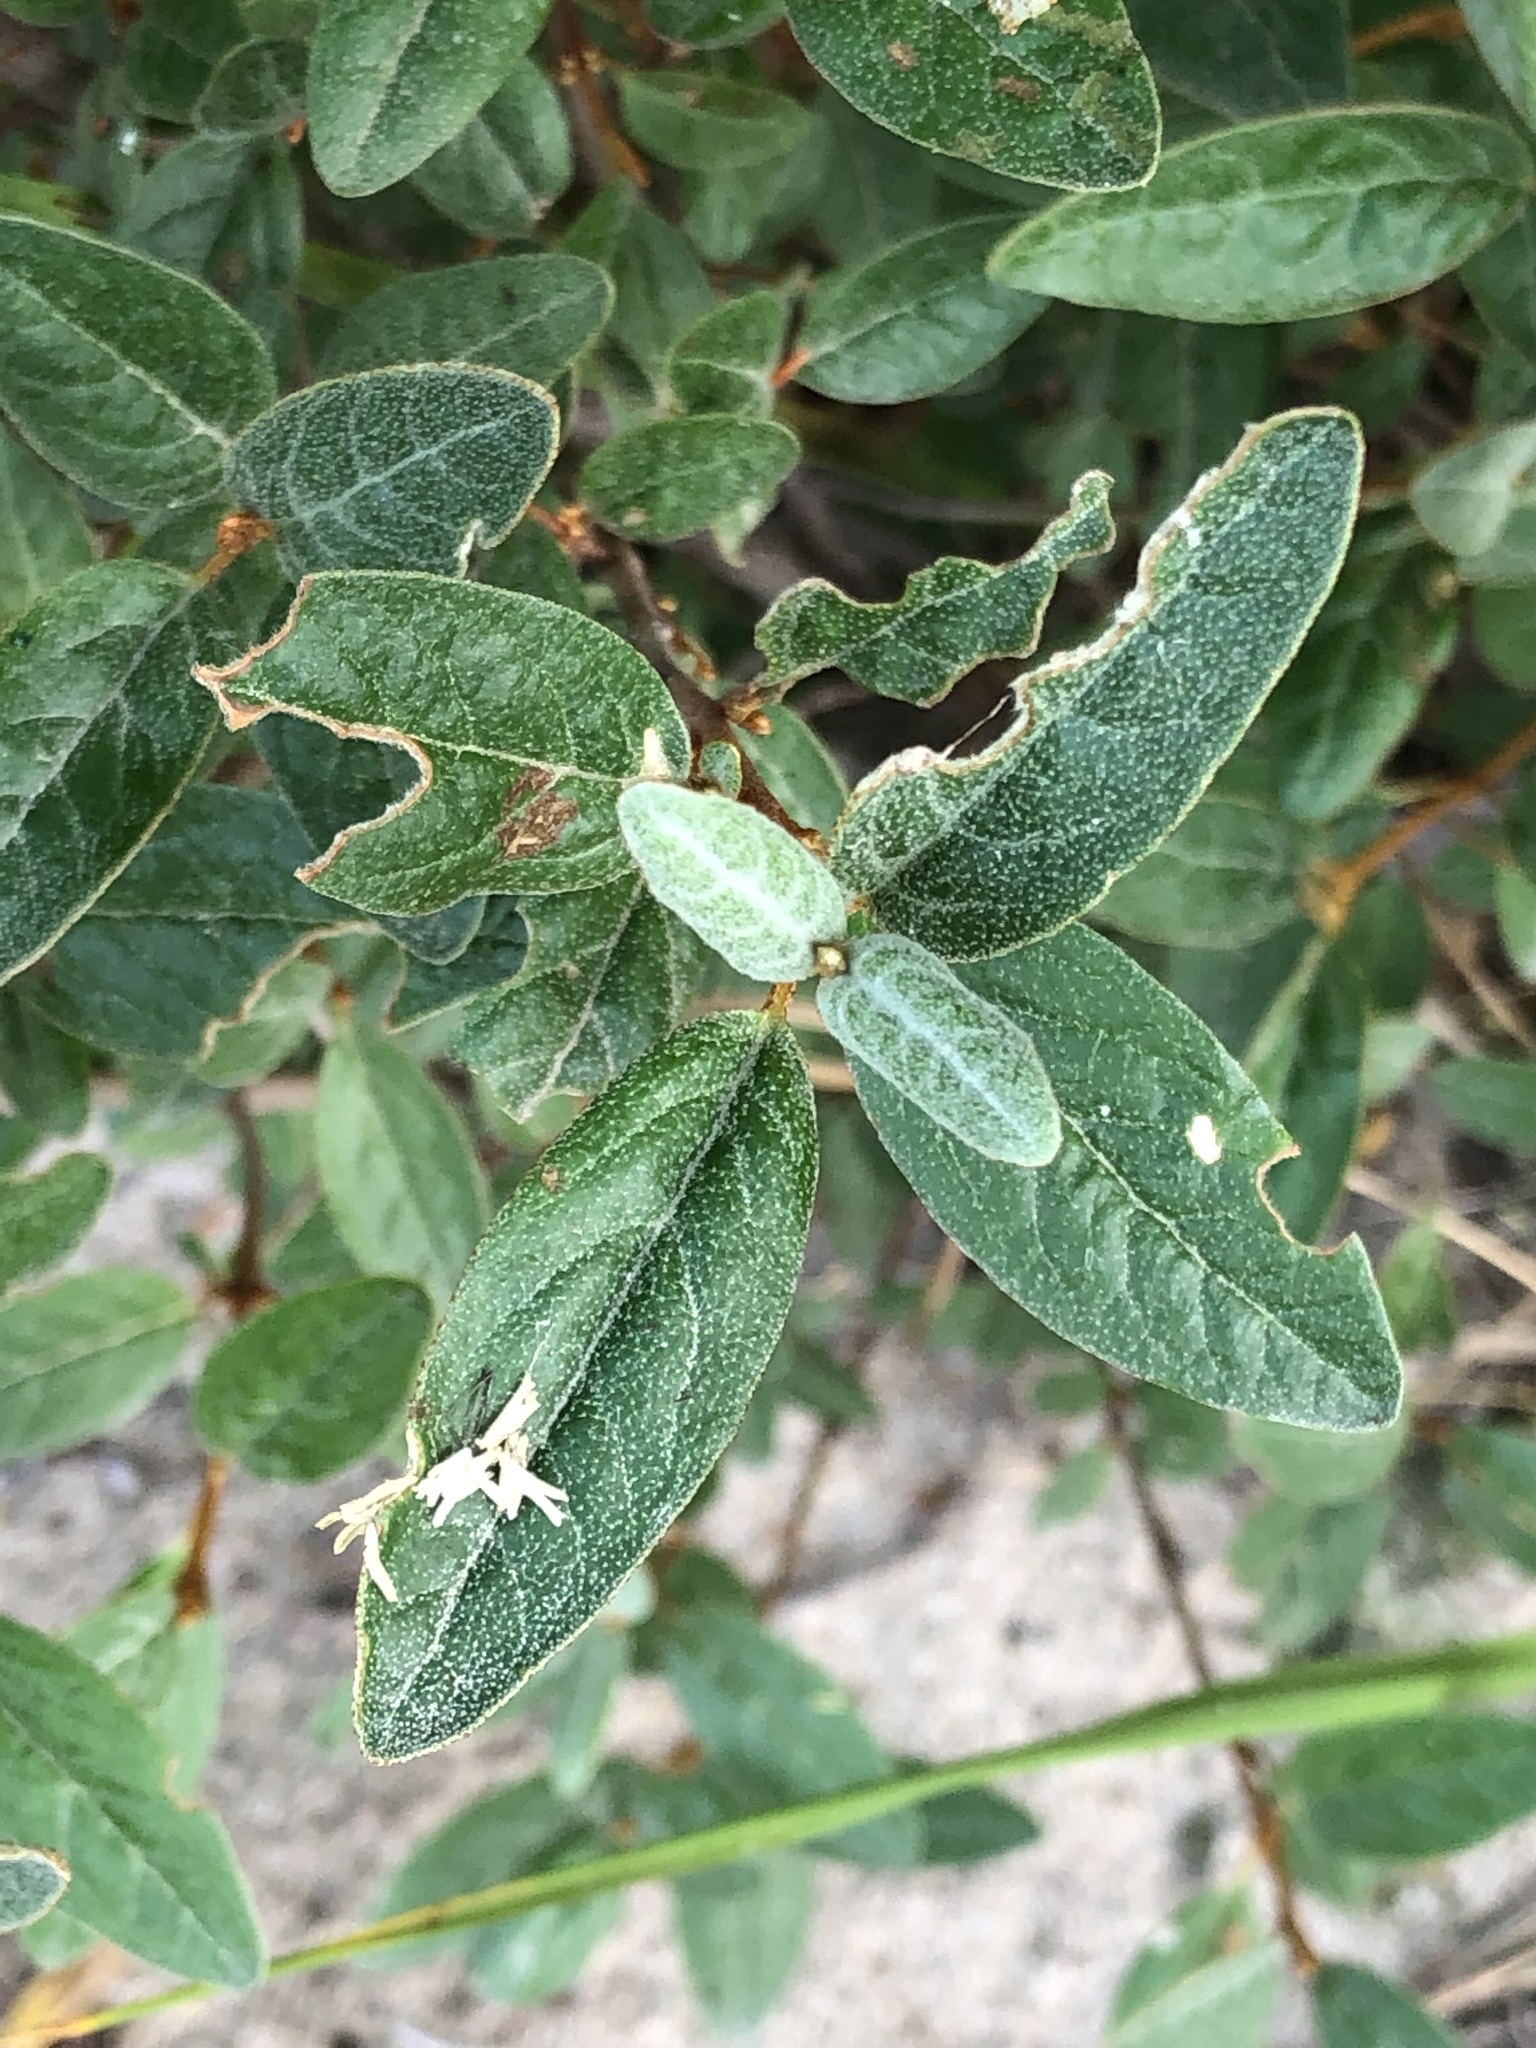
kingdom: Plantae
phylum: Tracheophyta
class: Magnoliopsida
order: Rosales
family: Elaeagnaceae
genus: Shepherdia
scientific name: Shepherdia canadensis
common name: Soapberry
